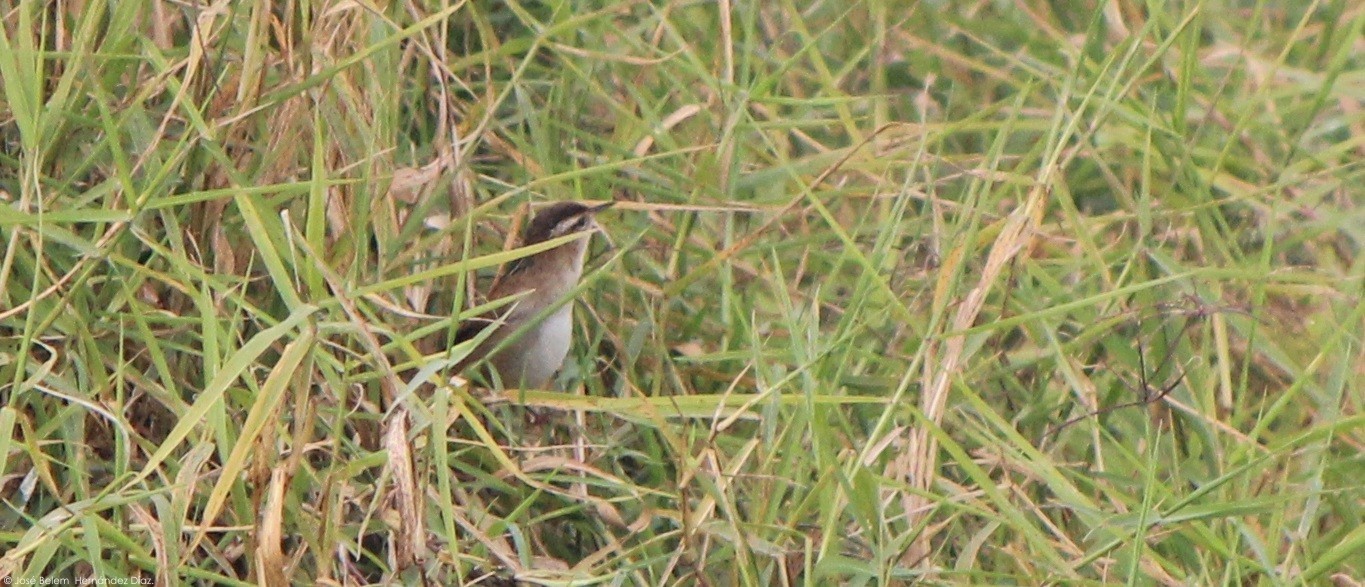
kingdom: Animalia
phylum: Chordata
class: Aves
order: Passeriformes
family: Troglodytidae
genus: Cistothorus
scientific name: Cistothorus palustris
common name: Marsh wren
